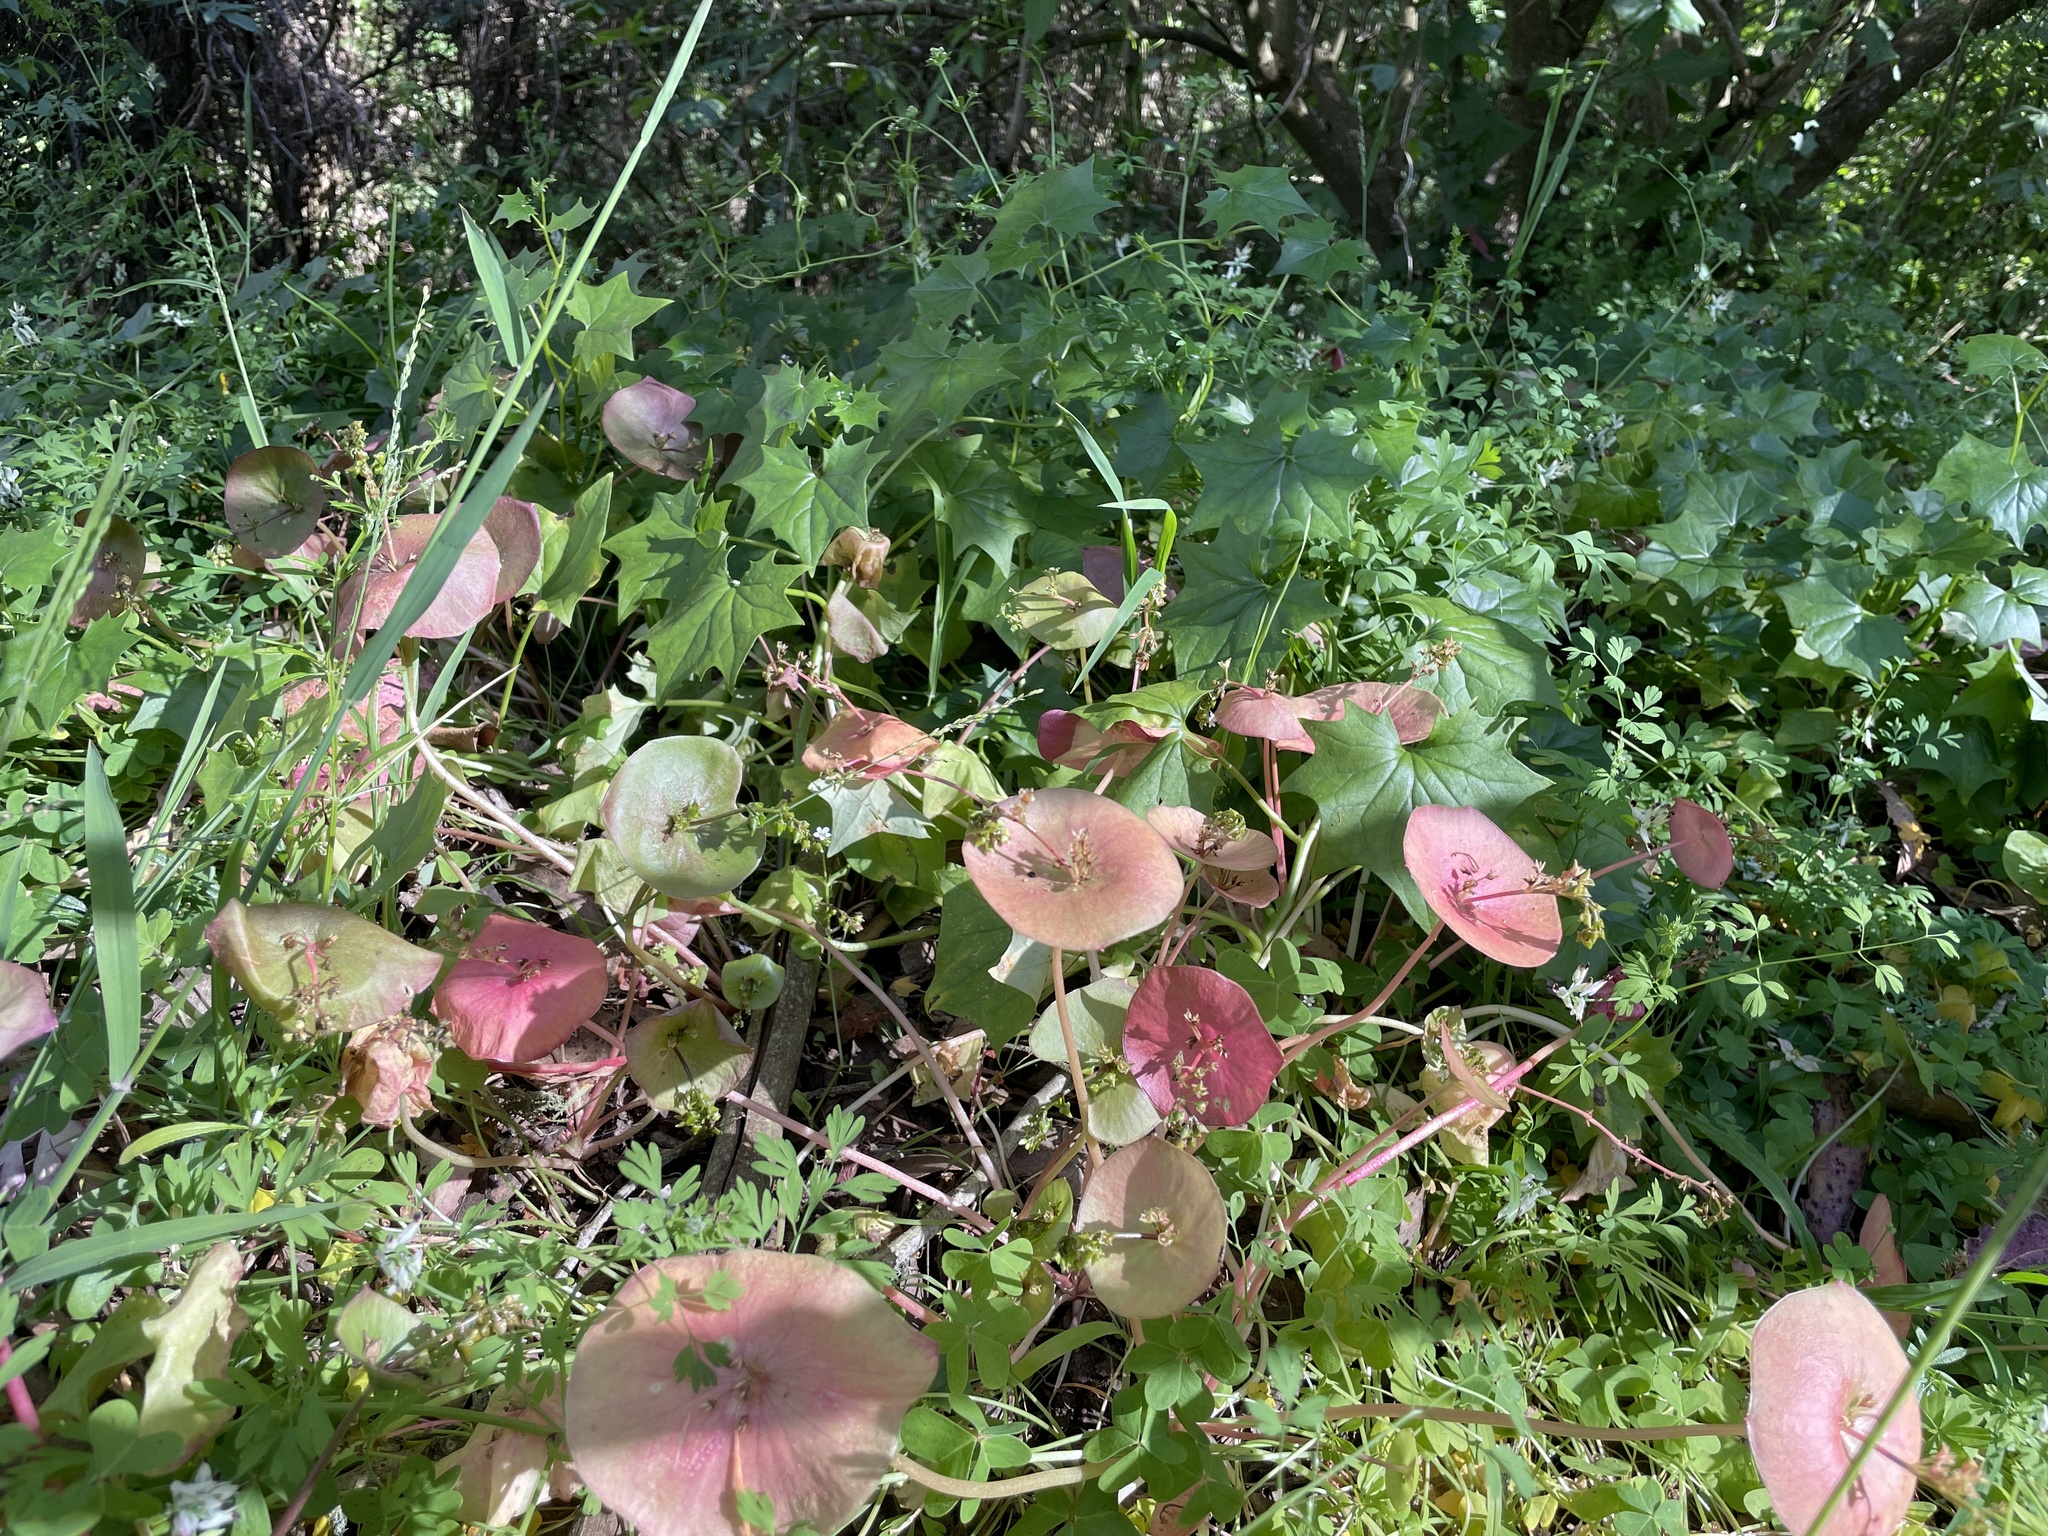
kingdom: Plantae
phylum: Tracheophyta
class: Magnoliopsida
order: Caryophyllales
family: Montiaceae
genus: Claytonia
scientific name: Claytonia perfoliata
